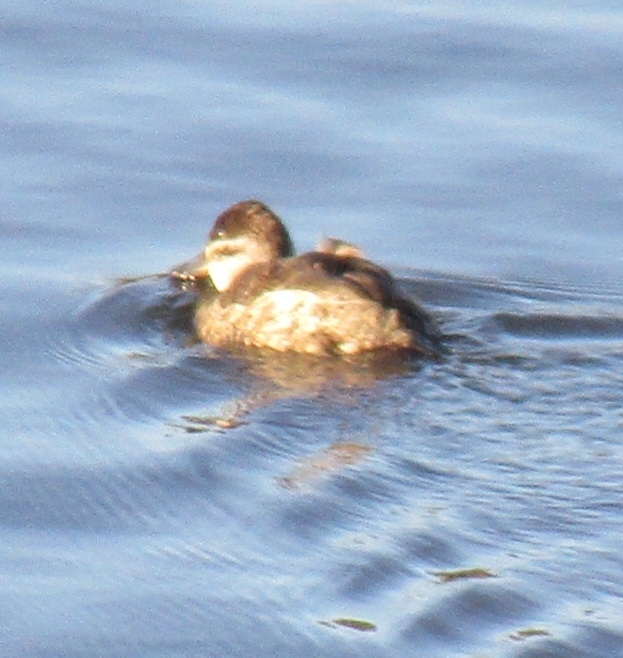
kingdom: Animalia
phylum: Chordata
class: Aves
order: Anseriformes
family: Anatidae
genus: Oxyura
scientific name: Oxyura jamaicensis
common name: Ruddy duck
